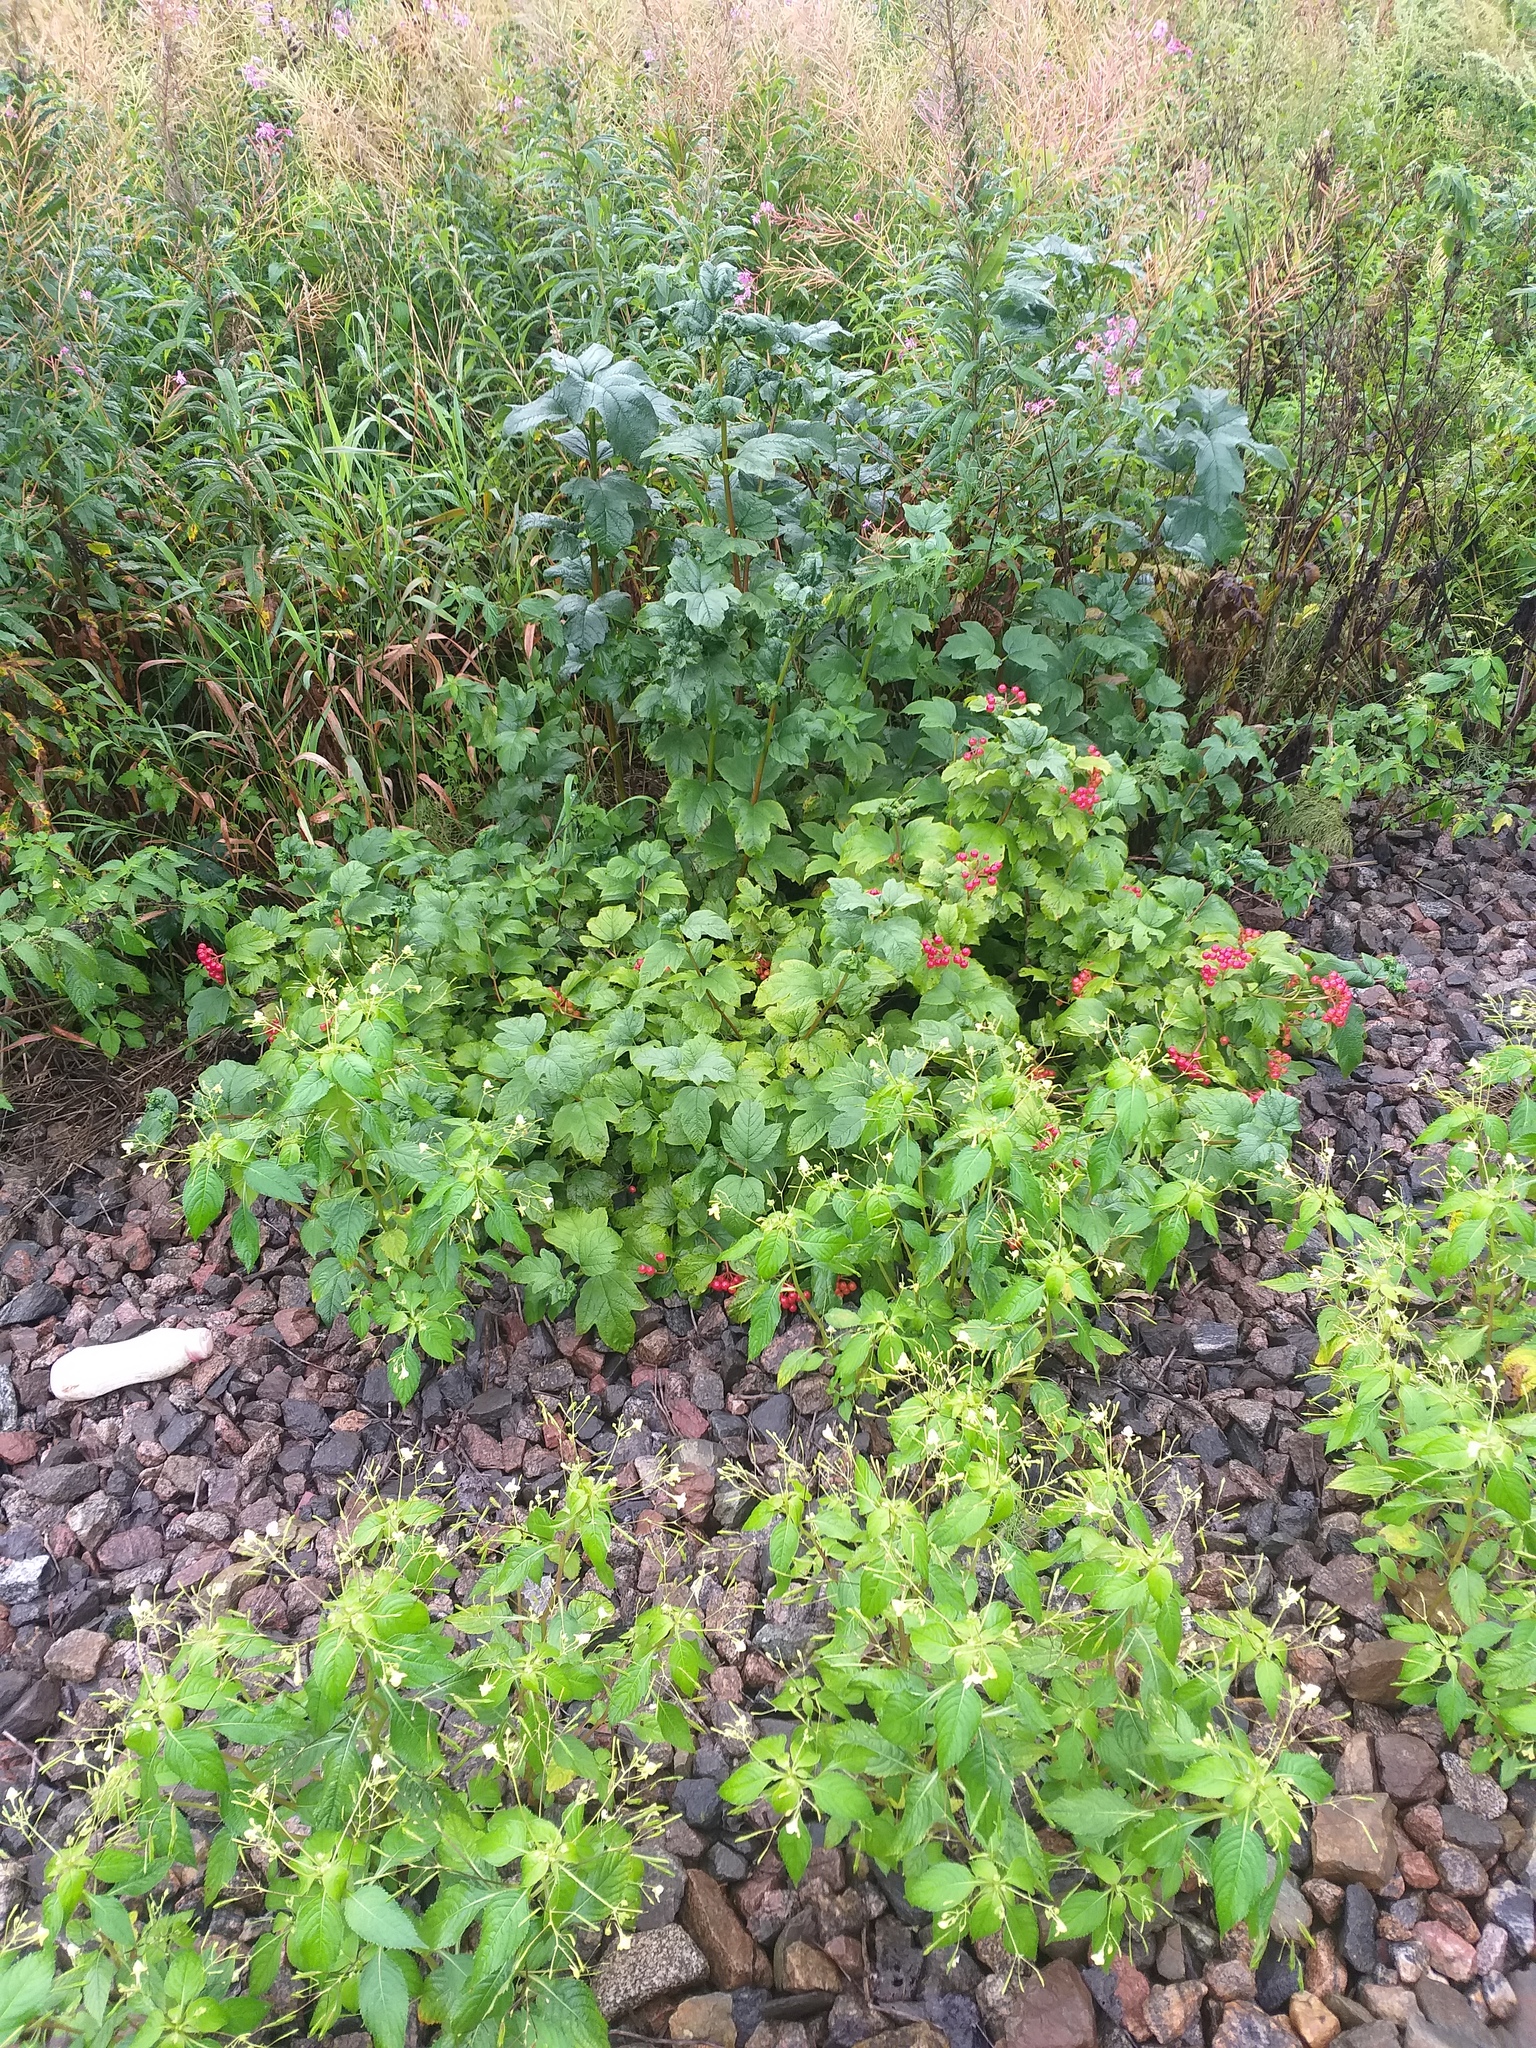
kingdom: Plantae
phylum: Tracheophyta
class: Magnoliopsida
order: Dipsacales
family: Viburnaceae
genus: Viburnum
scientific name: Viburnum opulus
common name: Guelder-rose
